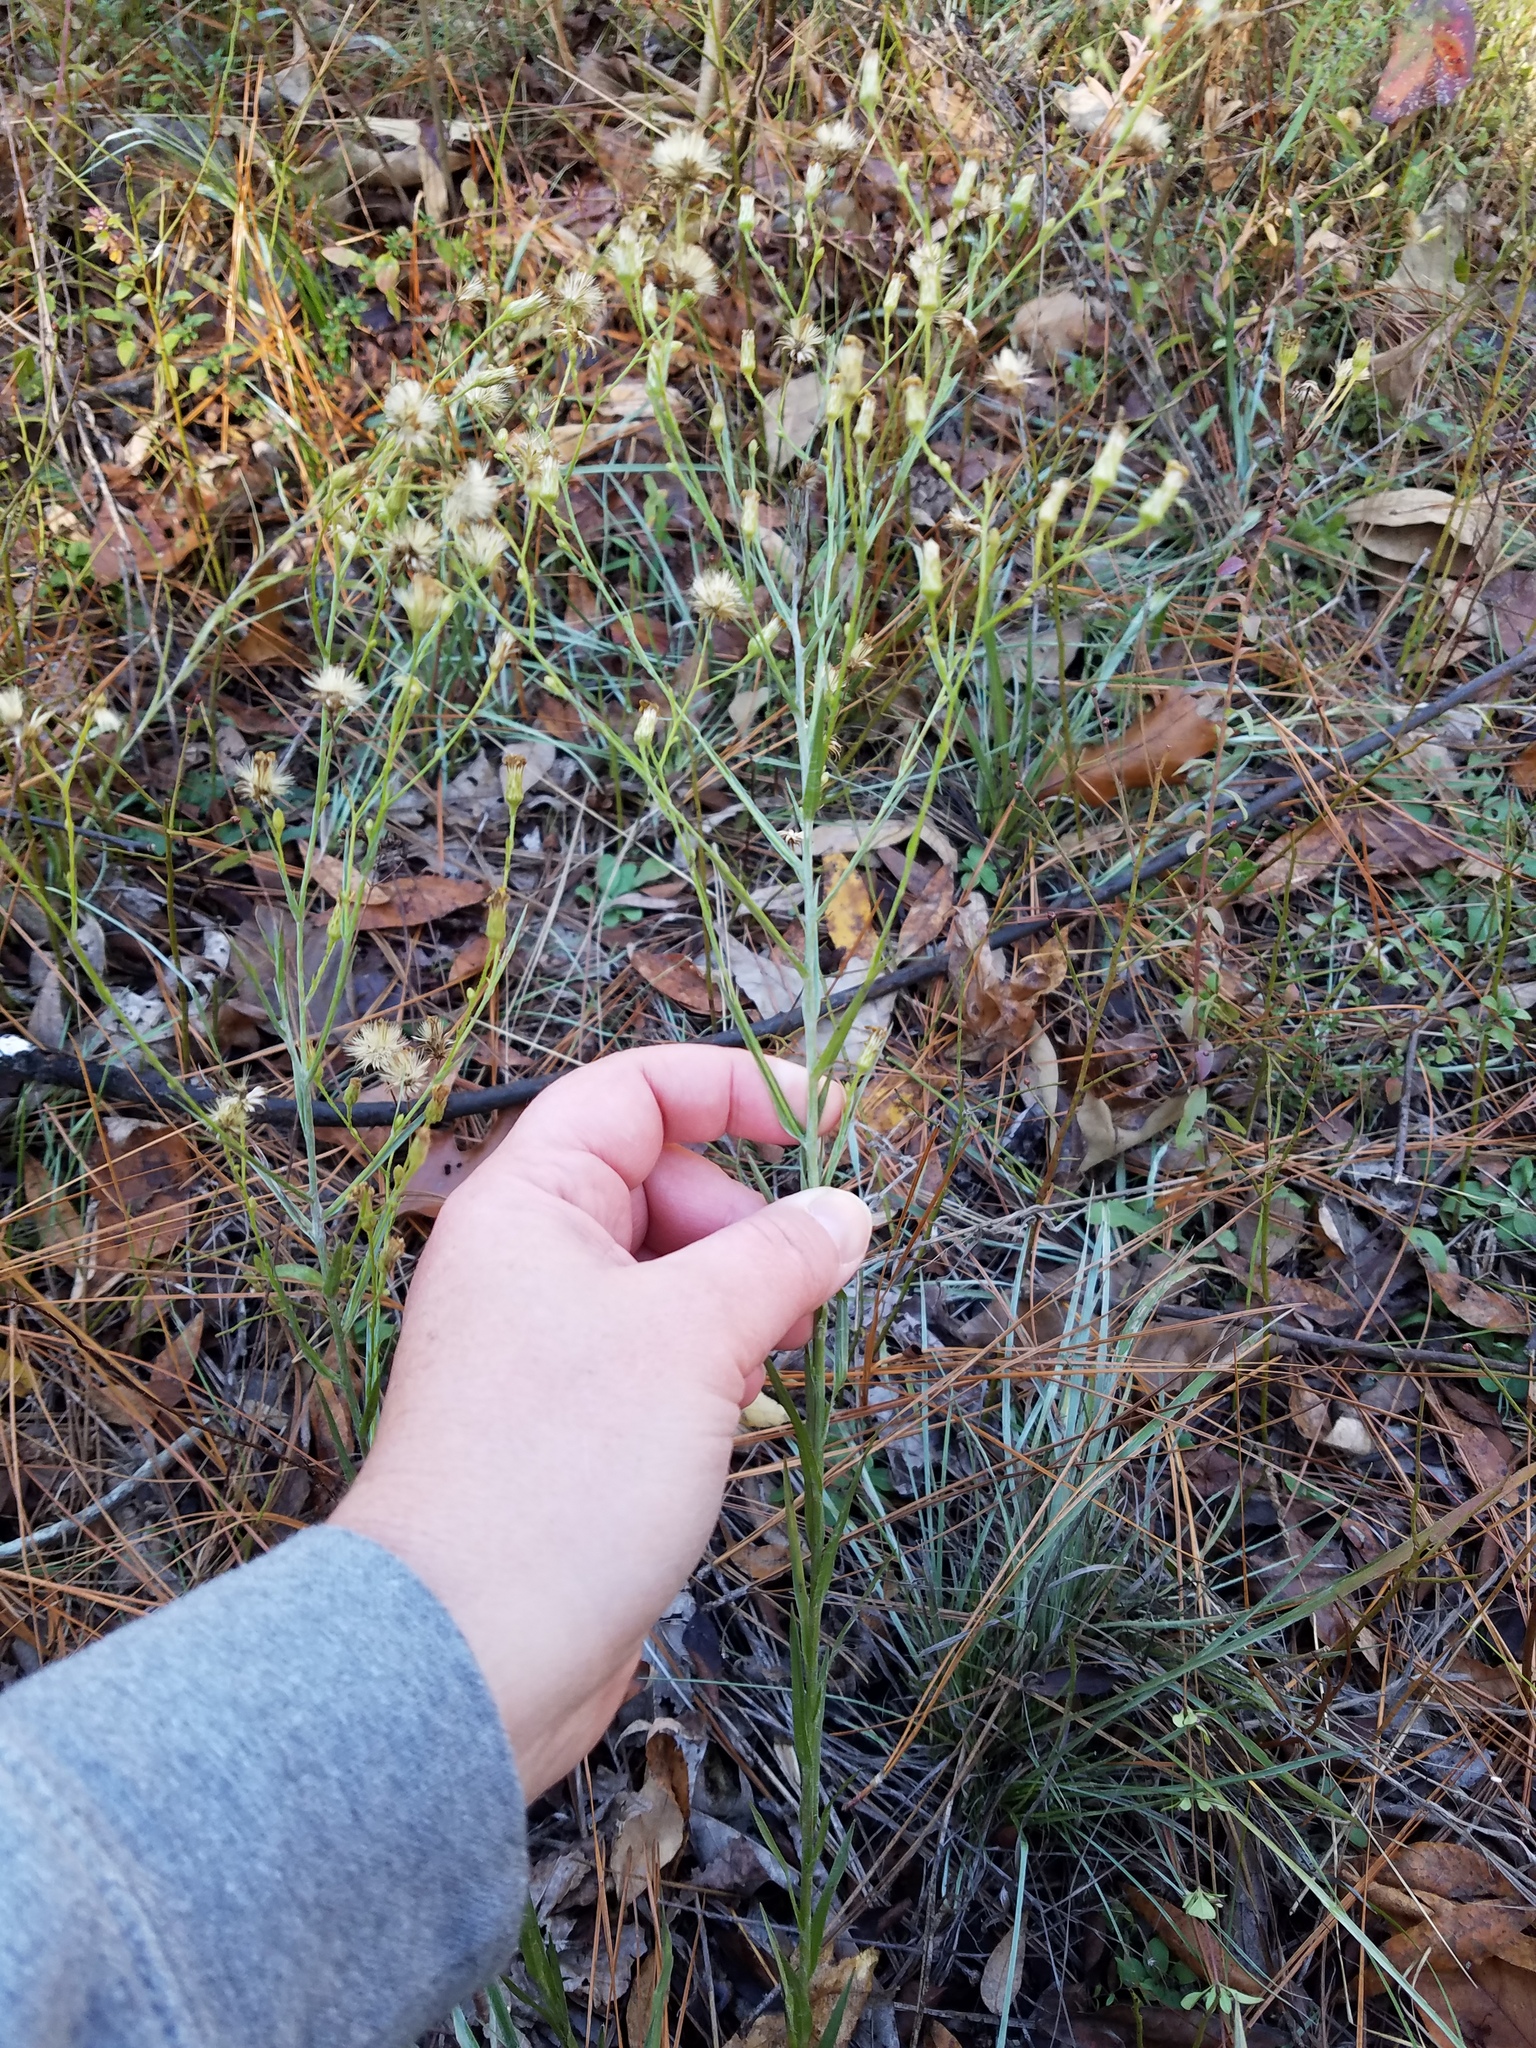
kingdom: Plantae
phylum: Tracheophyta
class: Magnoliopsida
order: Asterales
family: Asteraceae
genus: Pityopsis
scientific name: Pityopsis graminifolia
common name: Grass-leaf golden-aster
